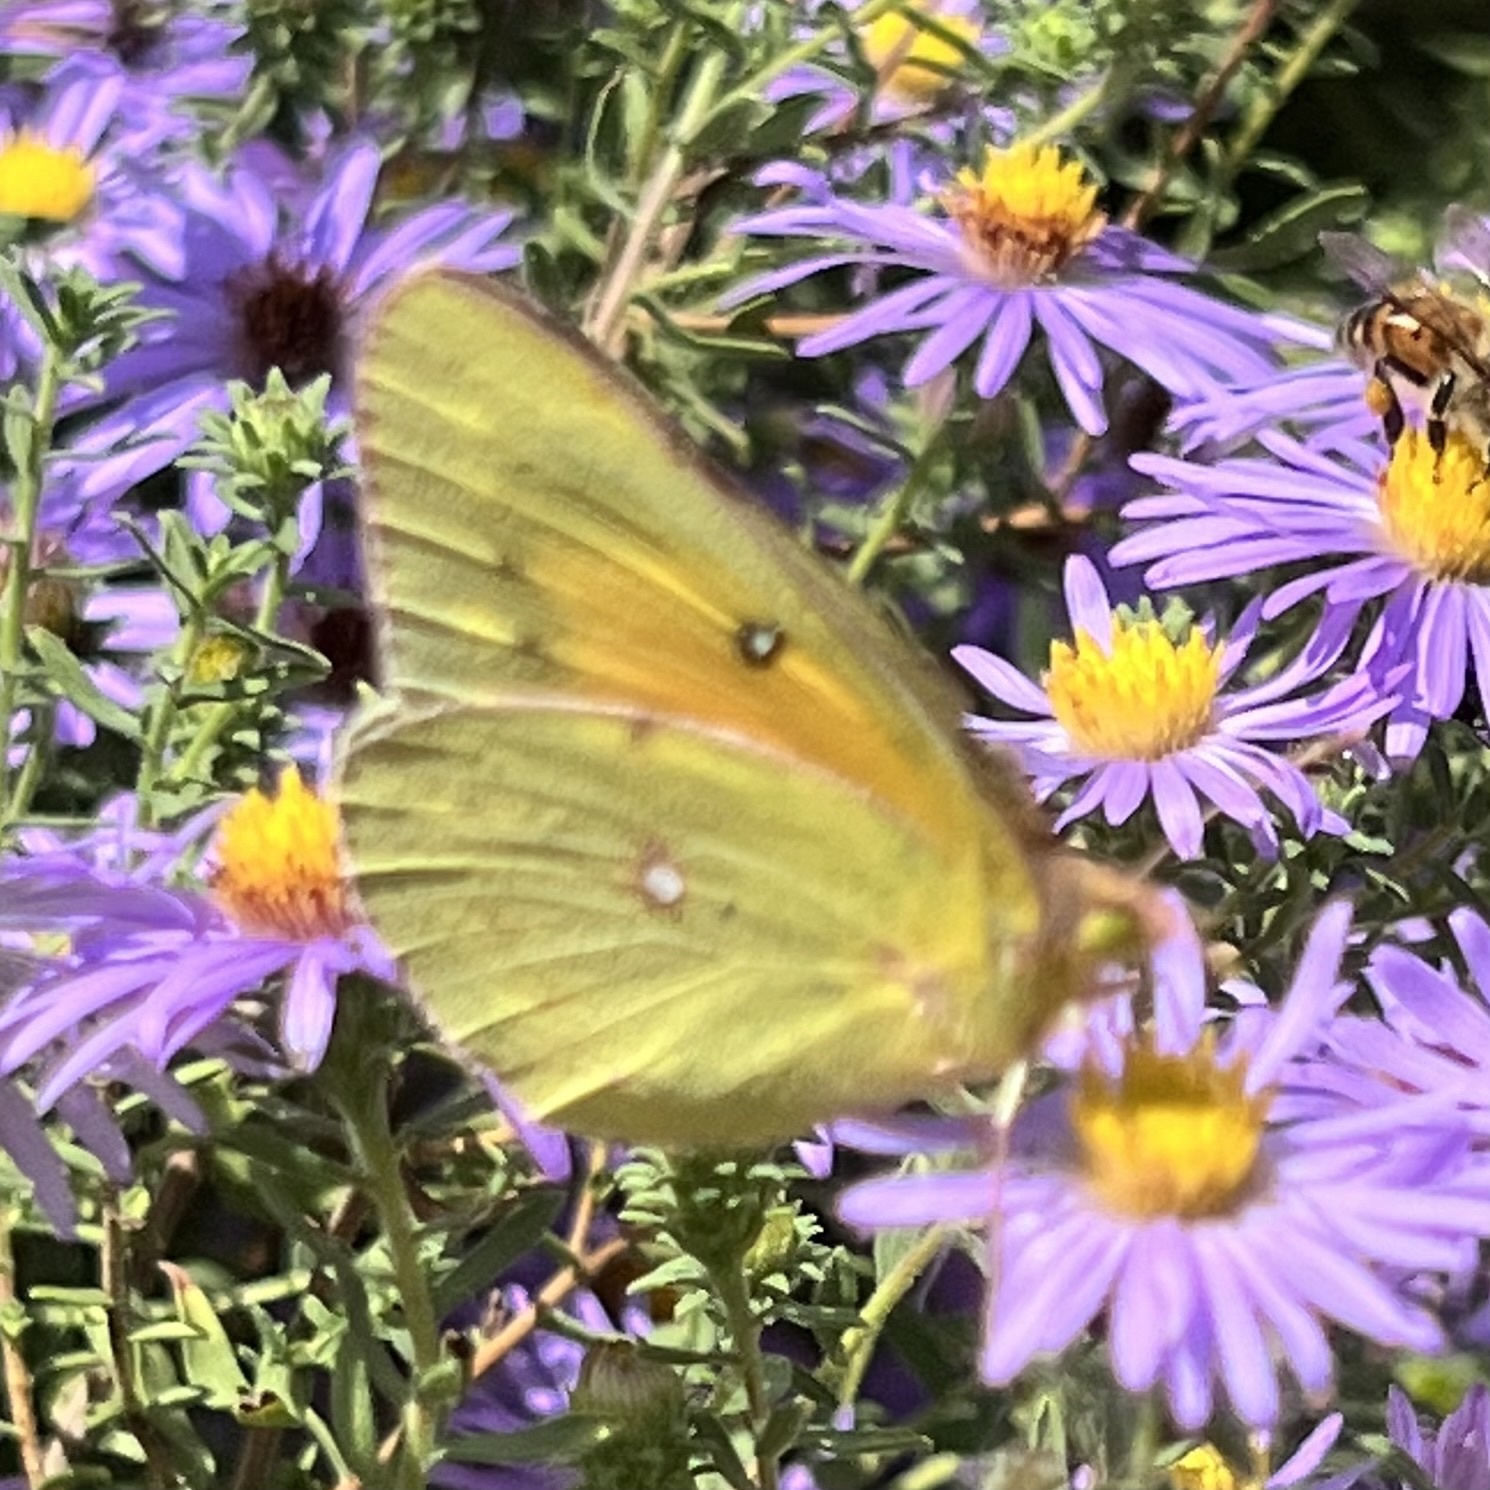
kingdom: Animalia
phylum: Arthropoda
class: Insecta
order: Lepidoptera
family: Pieridae
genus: Colias
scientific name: Colias eurytheme
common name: Alfalfa butterfly
